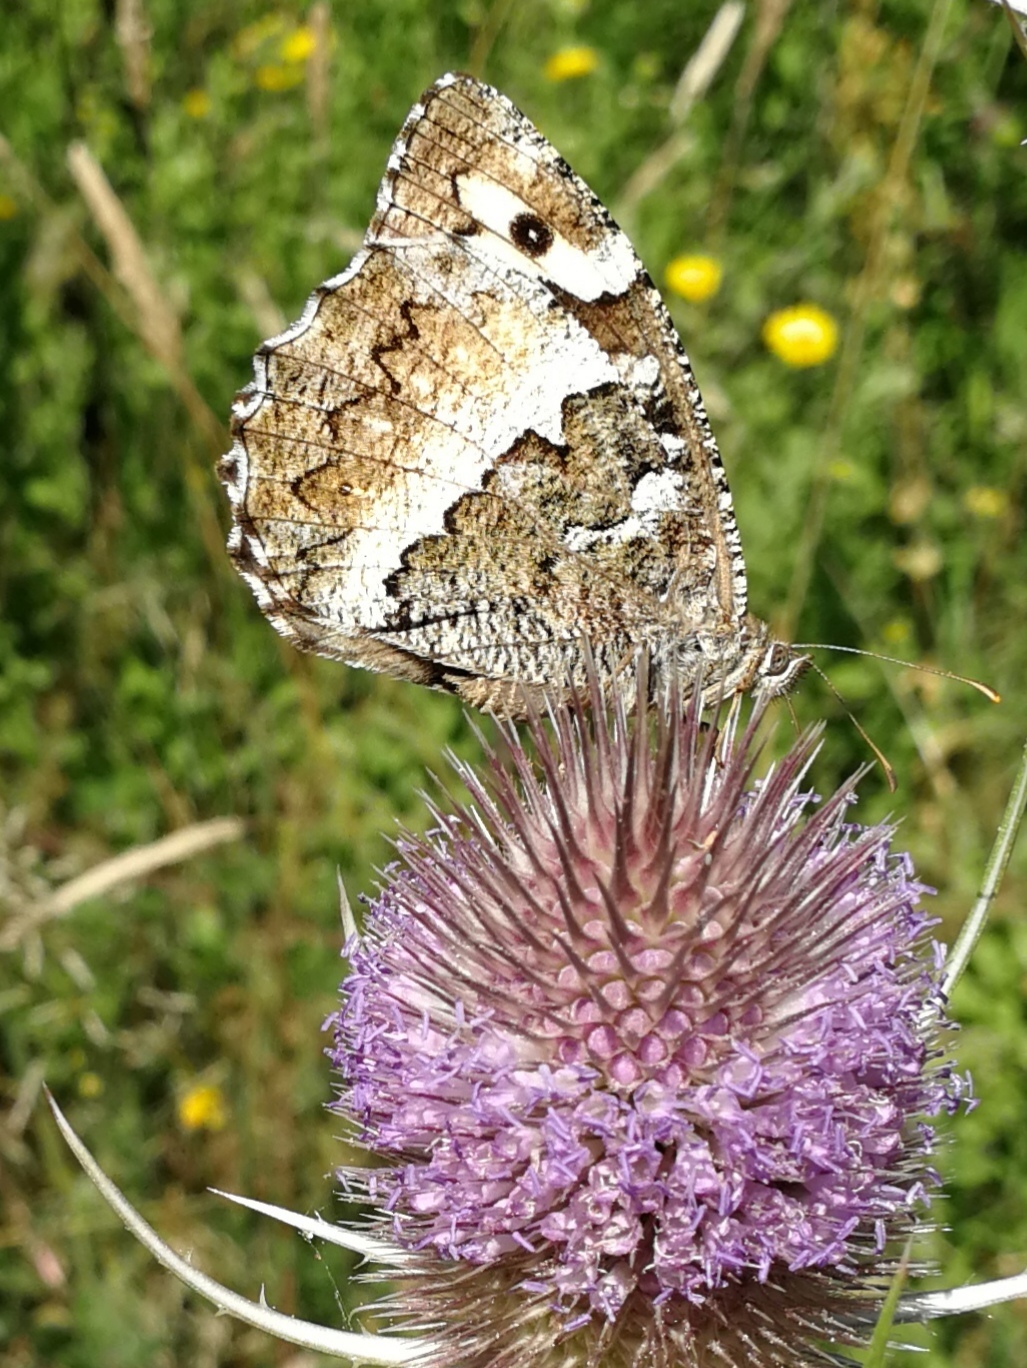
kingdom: Animalia
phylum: Arthropoda
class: Insecta
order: Lepidoptera
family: Lycaenidae
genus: Loweia
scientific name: Loweia tityrus
